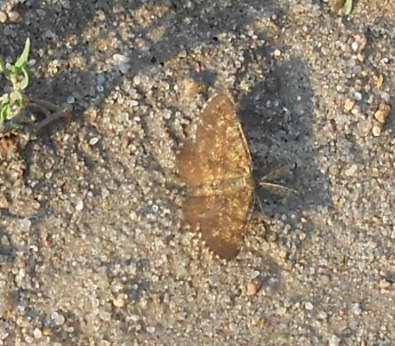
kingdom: Animalia
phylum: Arthropoda
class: Insecta
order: Lepidoptera
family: Geometridae
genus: Ematurga
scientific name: Ematurga atomaria
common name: Common heath
